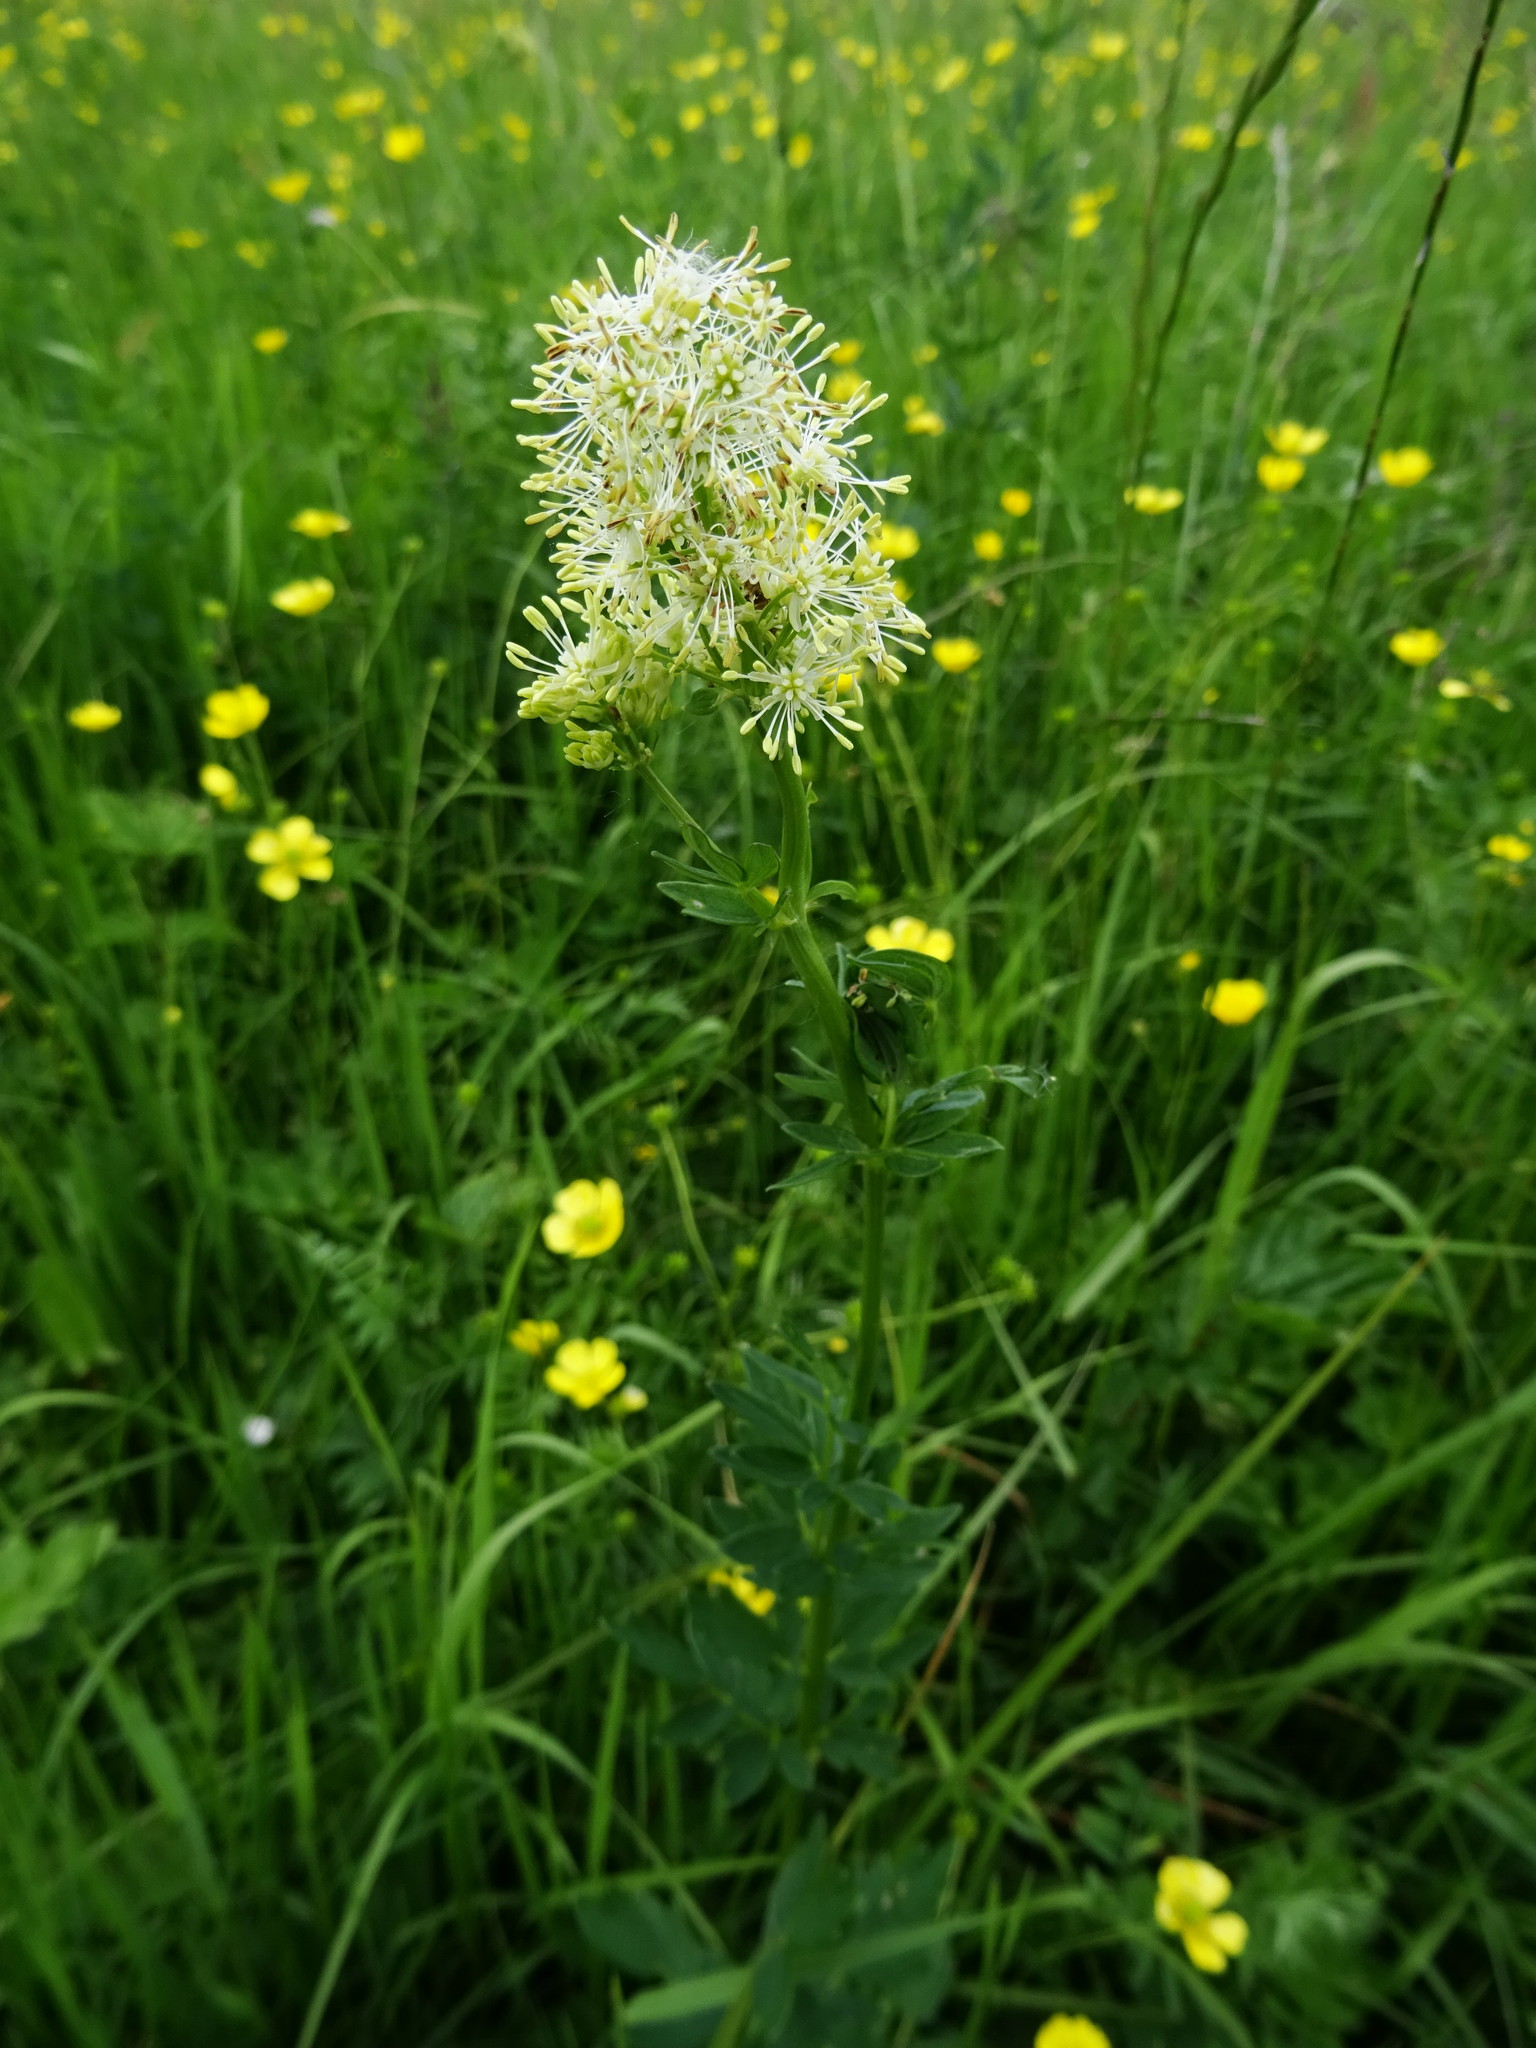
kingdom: Plantae
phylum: Tracheophyta
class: Magnoliopsida
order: Ranunculales
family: Ranunculaceae
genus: Thalictrum
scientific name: Thalictrum flavum
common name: Common meadow-rue
